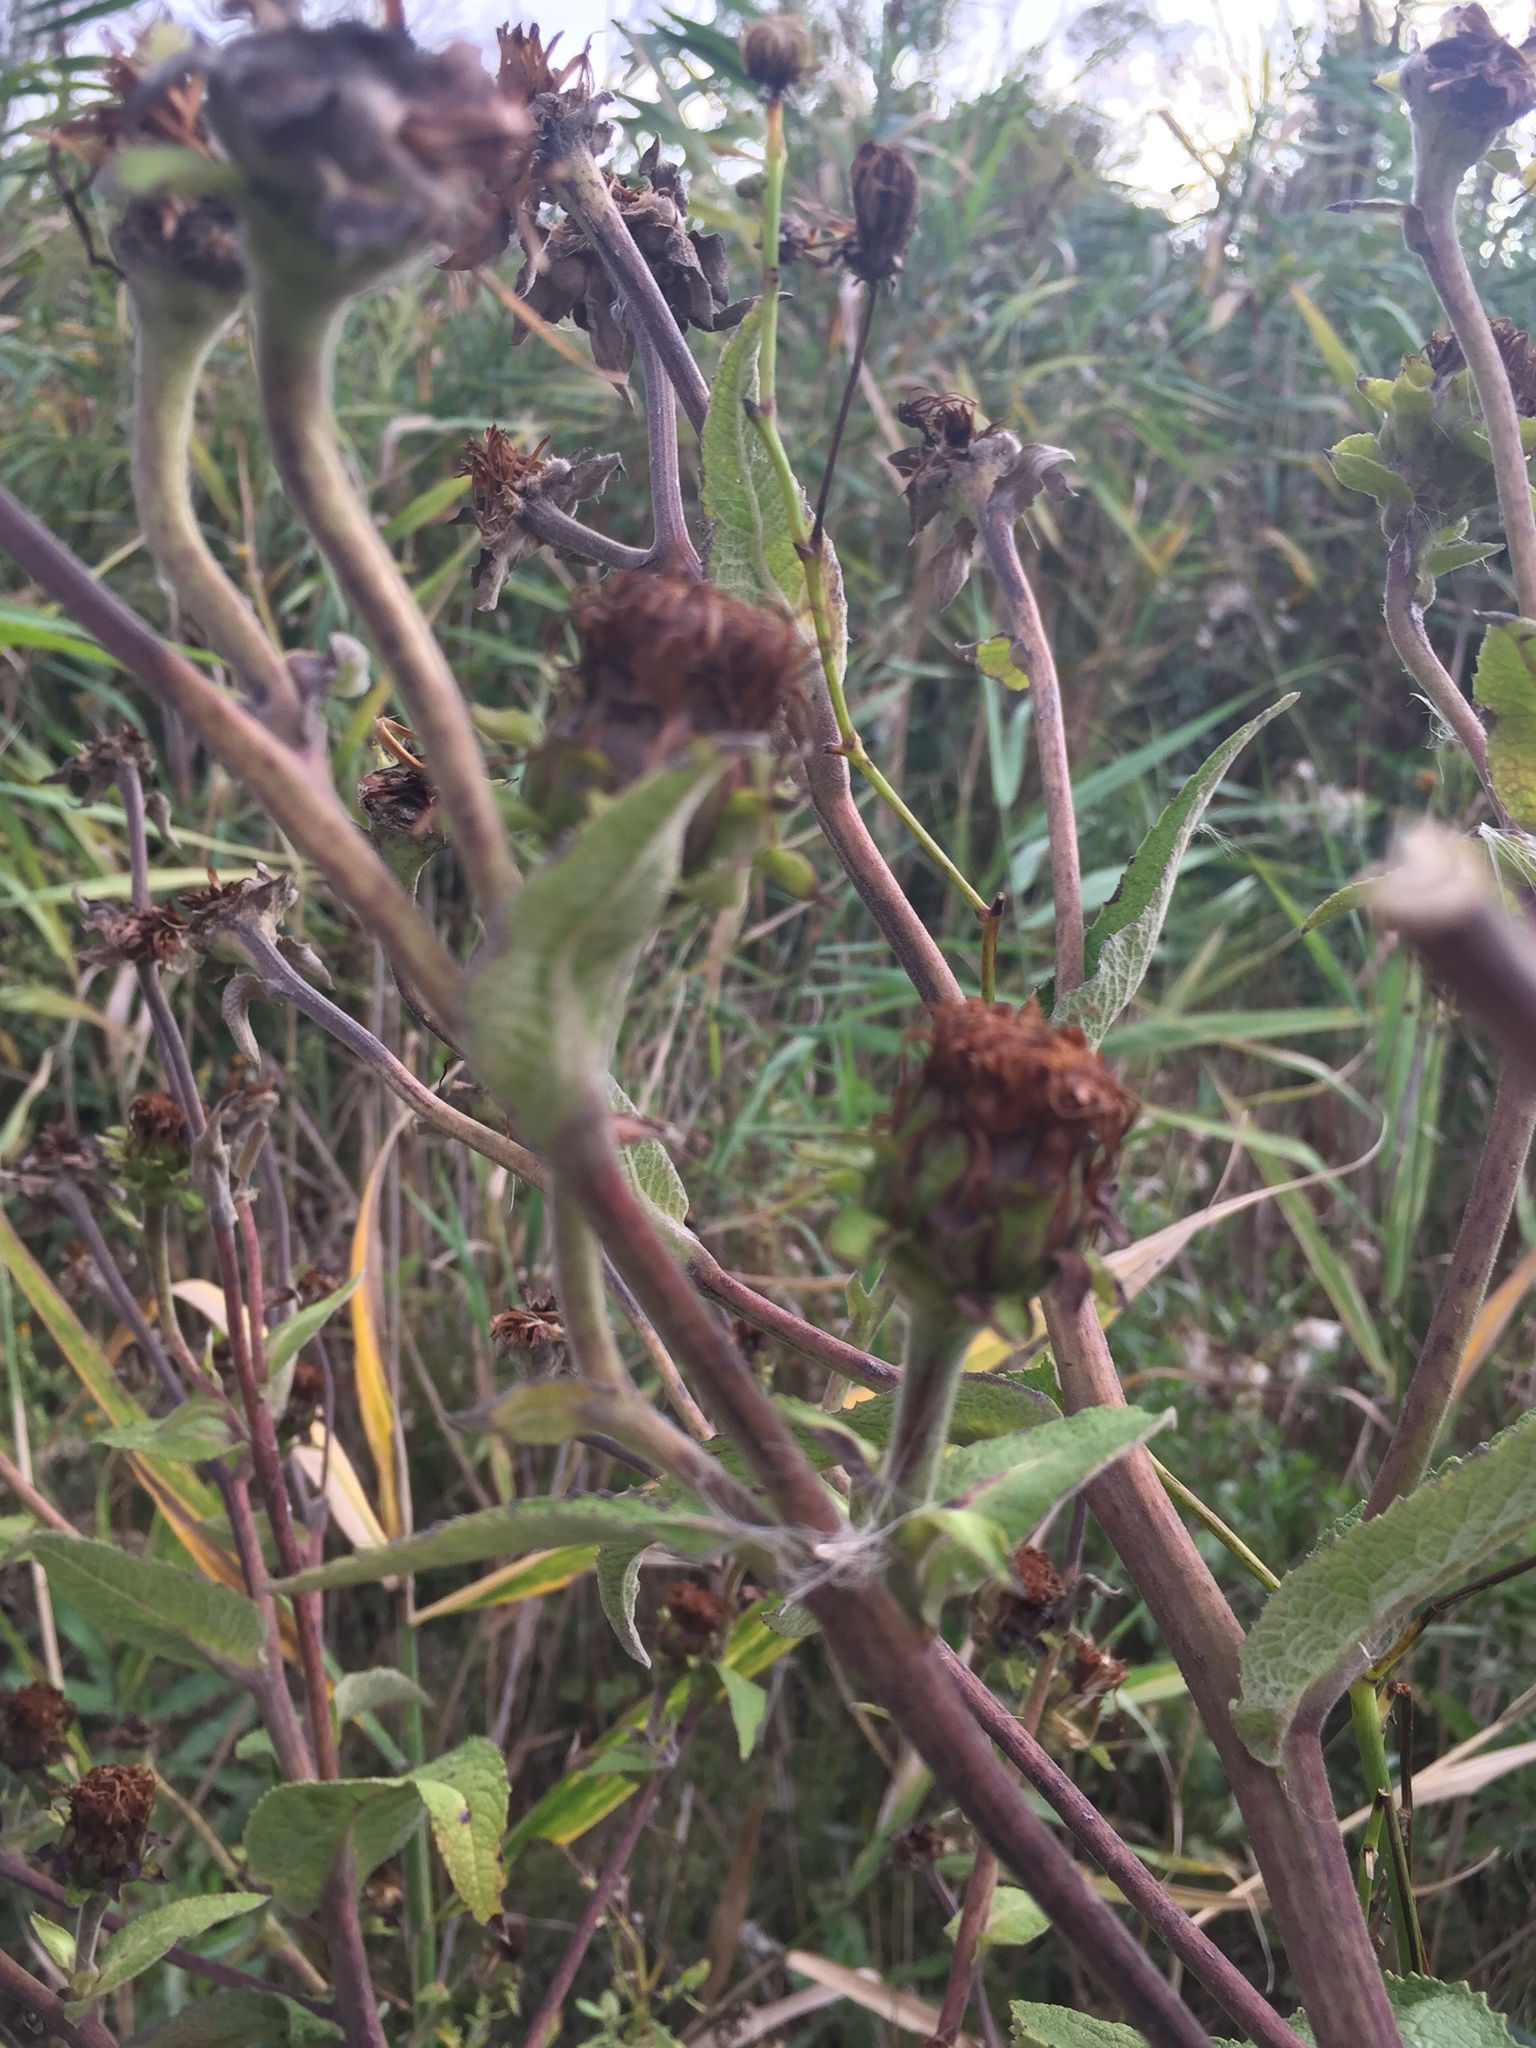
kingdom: Plantae
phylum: Tracheophyta
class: Magnoliopsida
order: Asterales
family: Asteraceae
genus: Inula
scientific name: Inula helenium
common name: Elecampane
